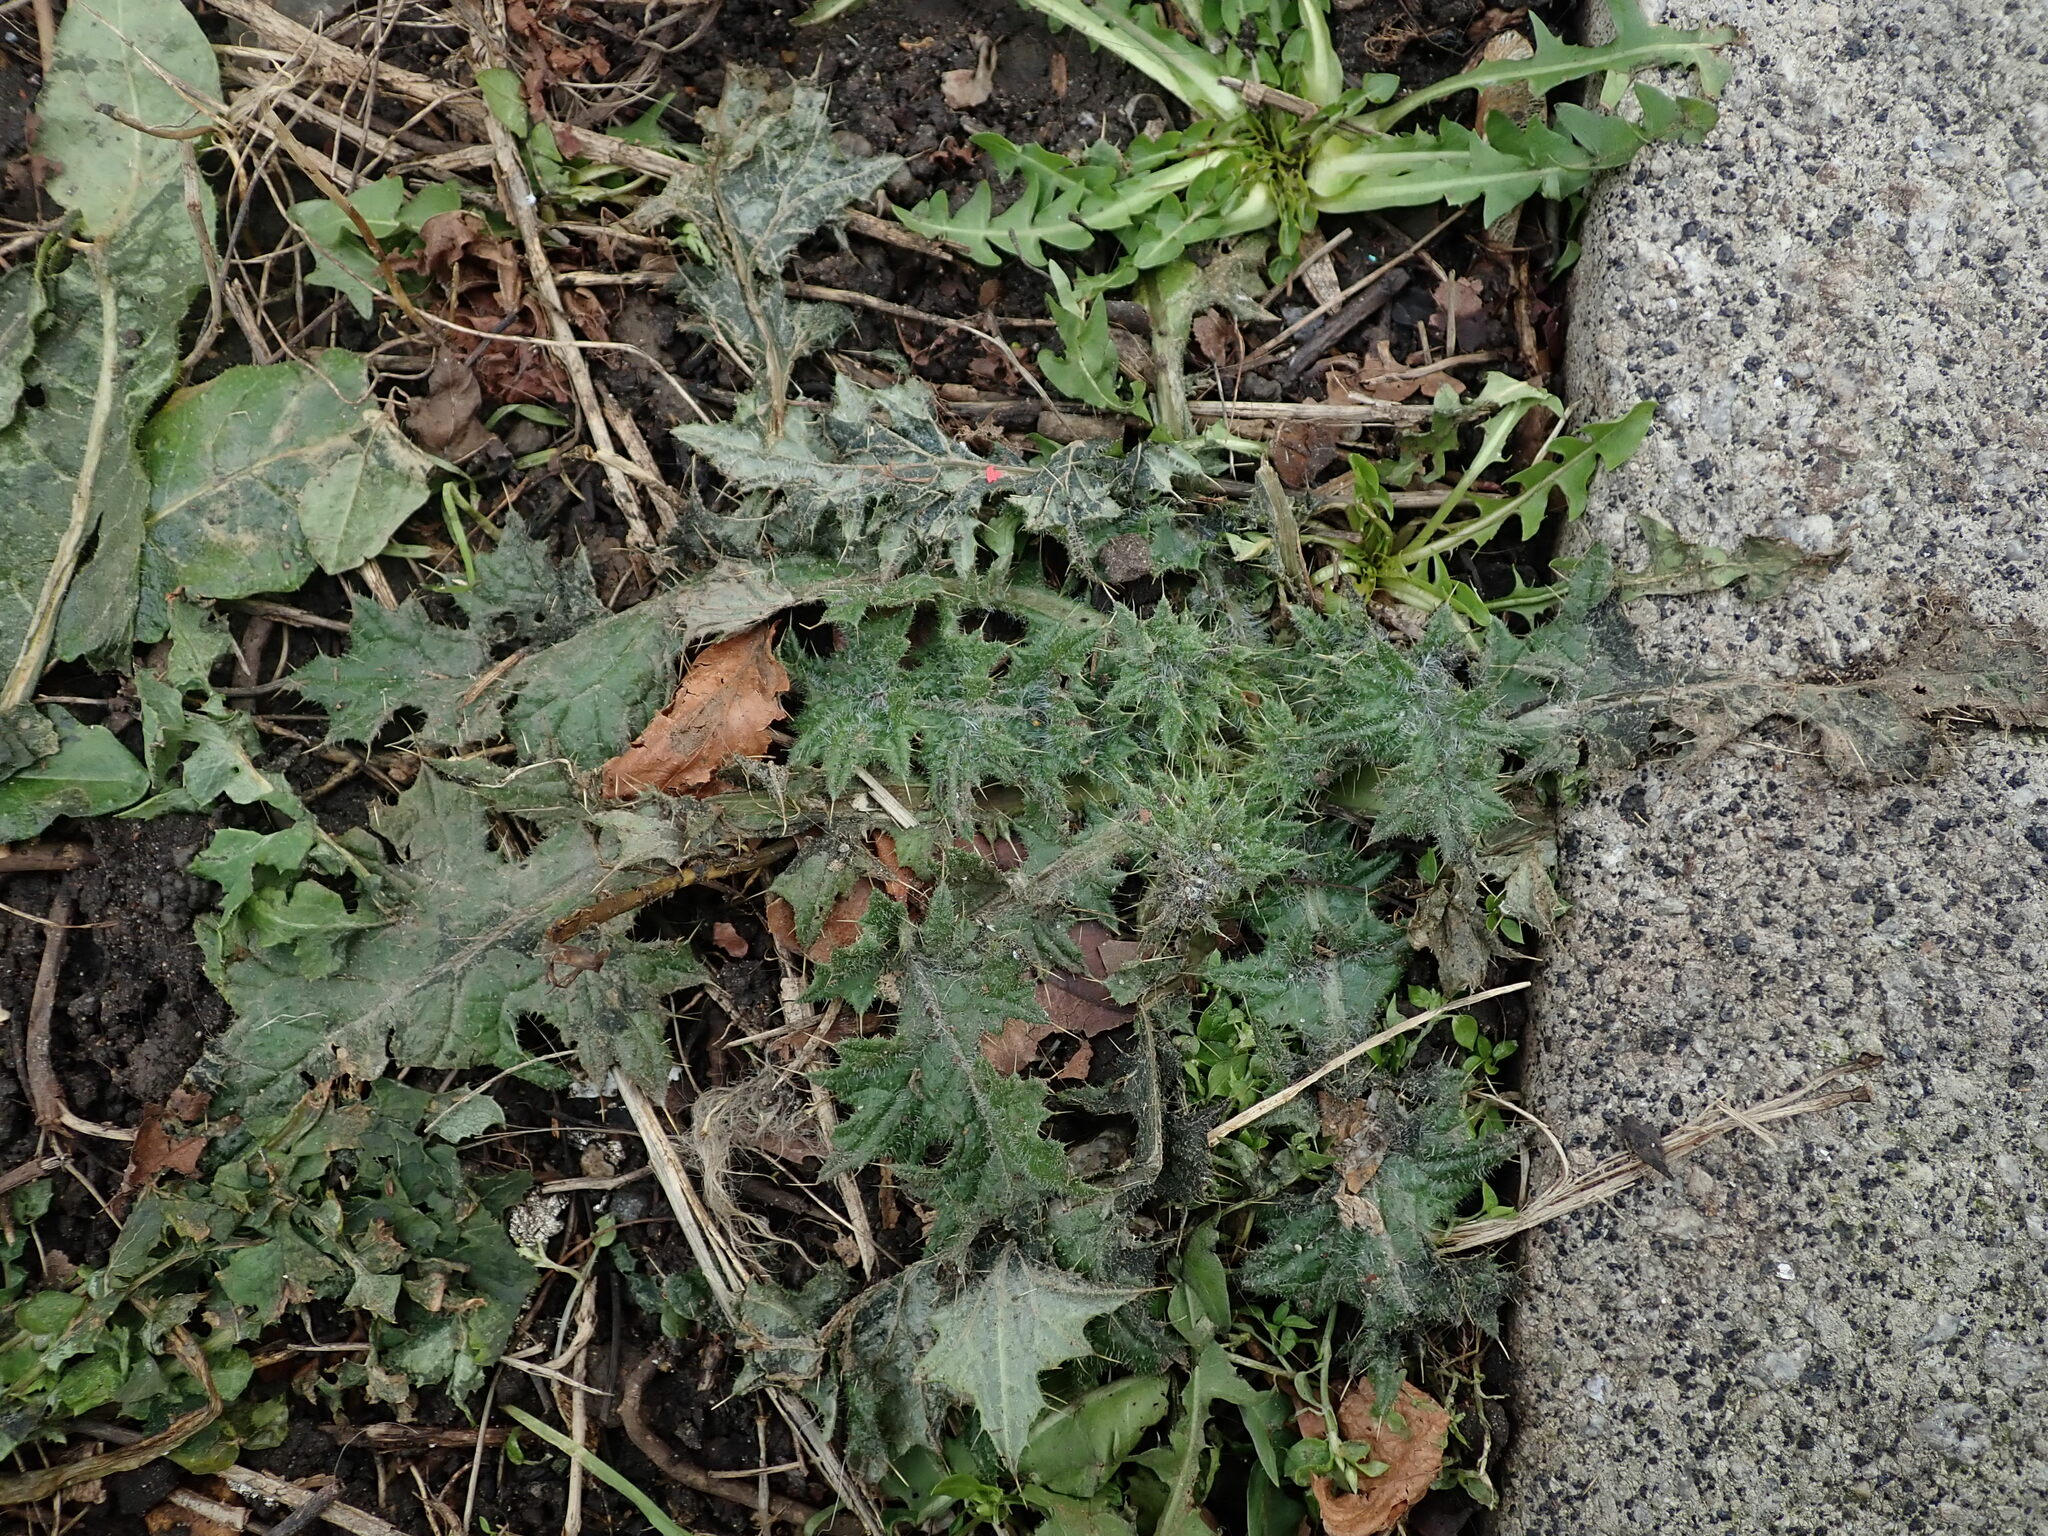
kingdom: Plantae
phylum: Tracheophyta
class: Magnoliopsida
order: Asterales
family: Asteraceae
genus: Cirsium
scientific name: Cirsium vulgare
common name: Bull thistle
